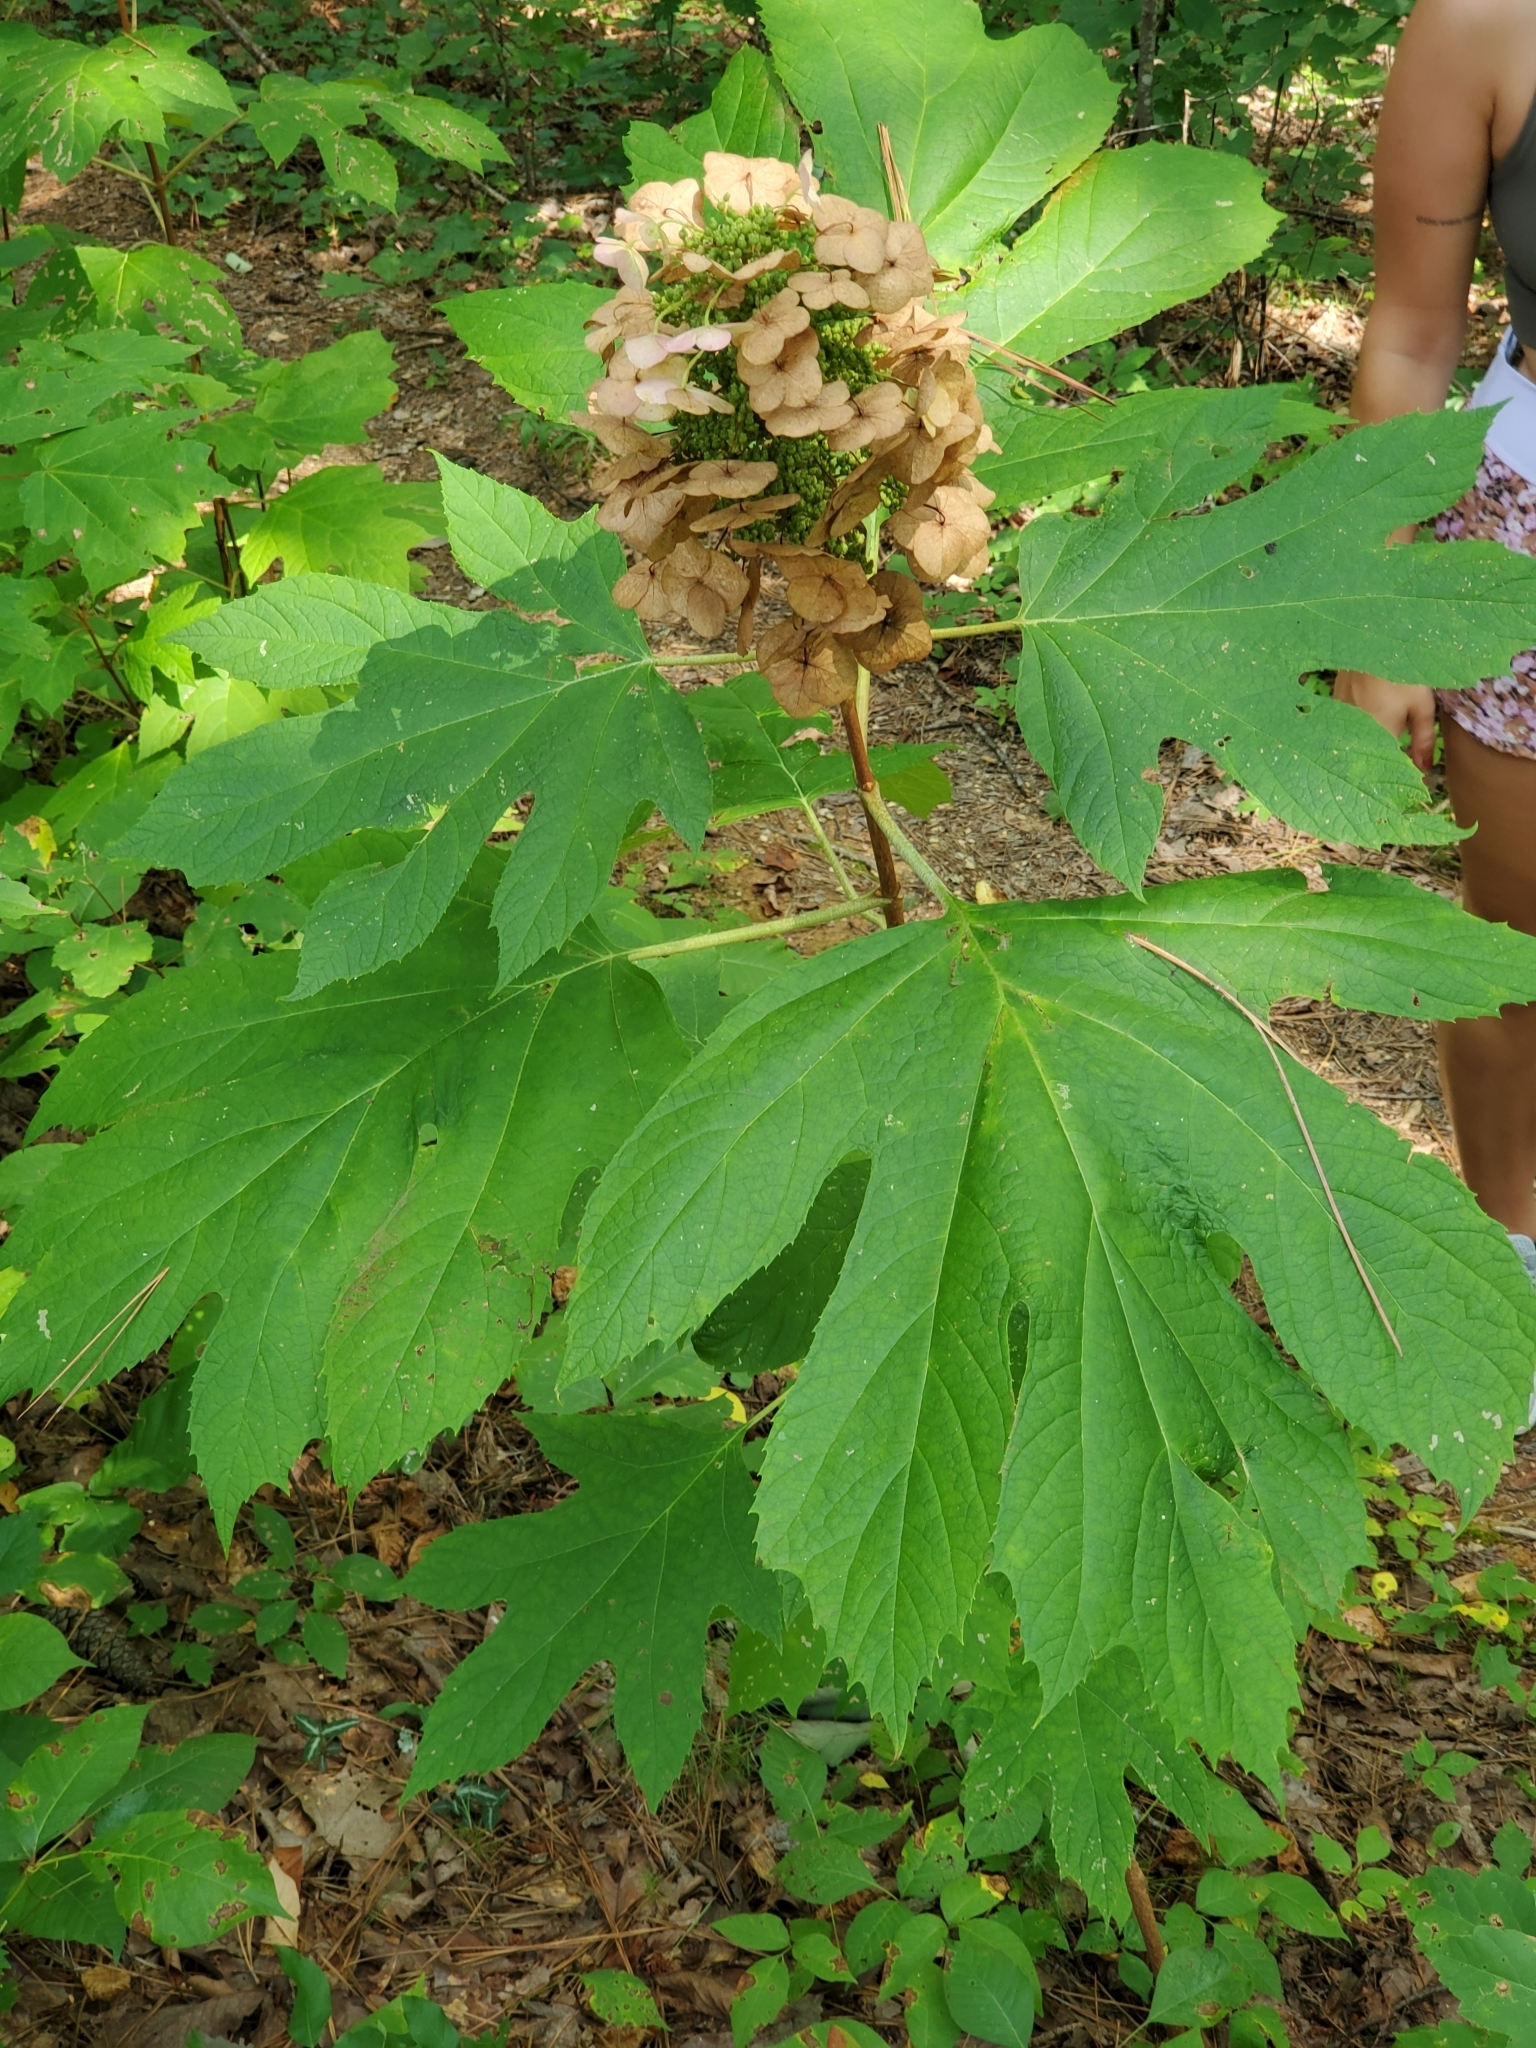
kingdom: Plantae
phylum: Tracheophyta
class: Magnoliopsida
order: Cornales
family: Hydrangeaceae
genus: Hydrangea
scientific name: Hydrangea quercifolia
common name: Oak-leaf hydrangea
